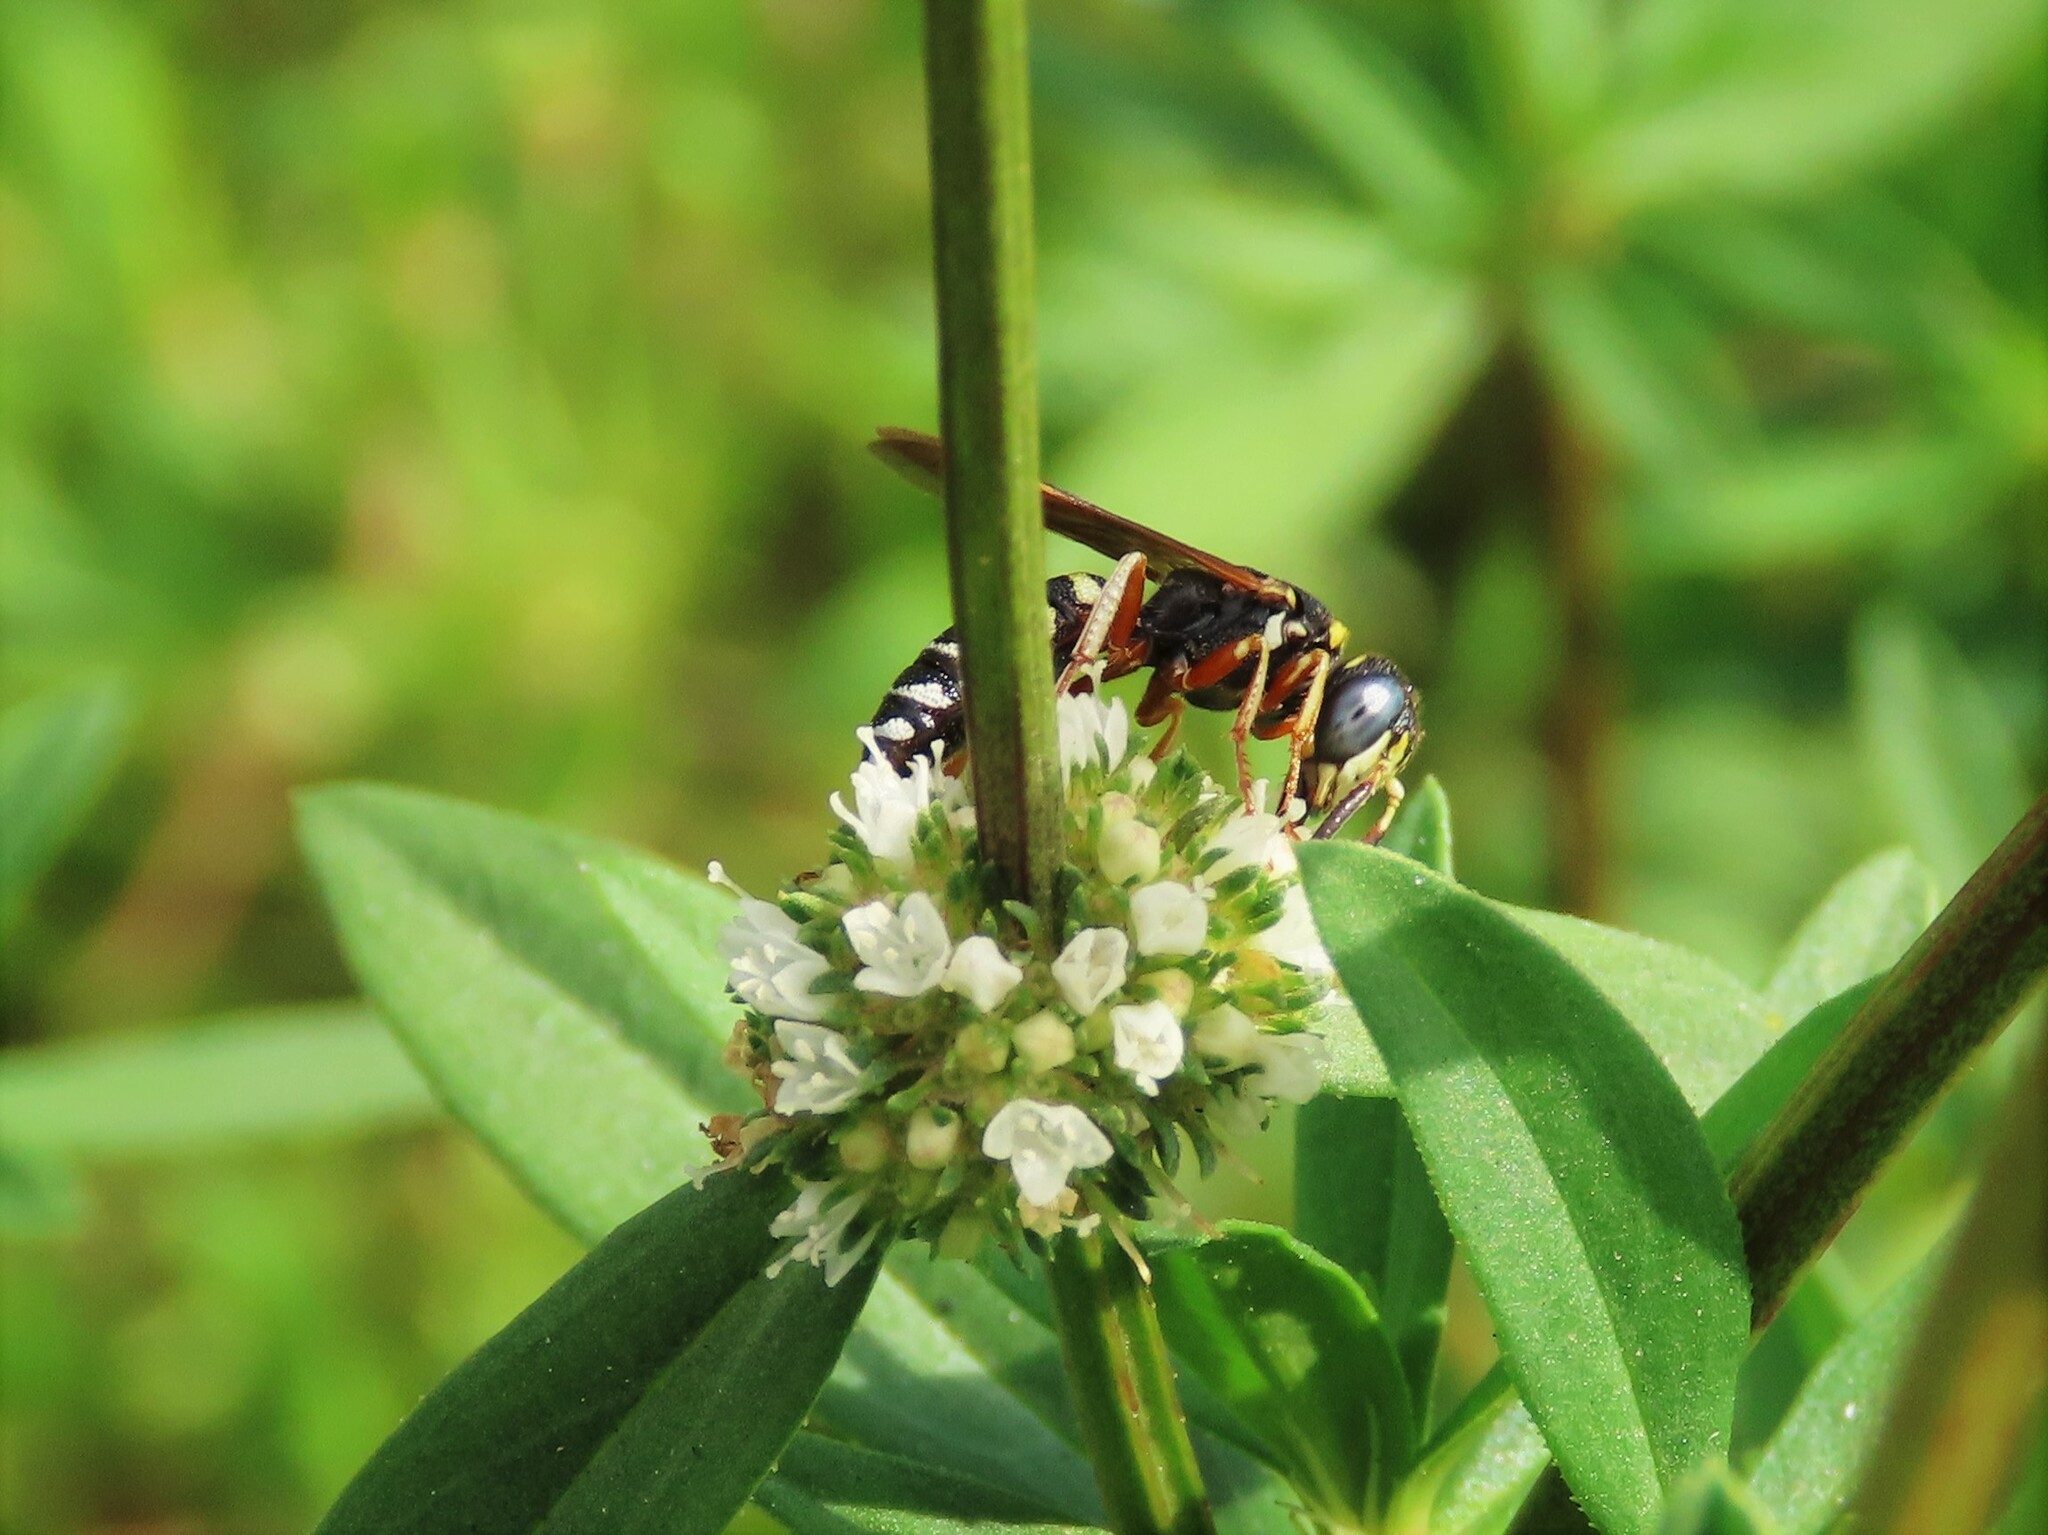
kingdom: Animalia
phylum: Arthropoda
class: Insecta
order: Hymenoptera
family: Crabronidae
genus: Philanthus
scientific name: Philanthus ventilabris
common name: Bee-killer wasp
